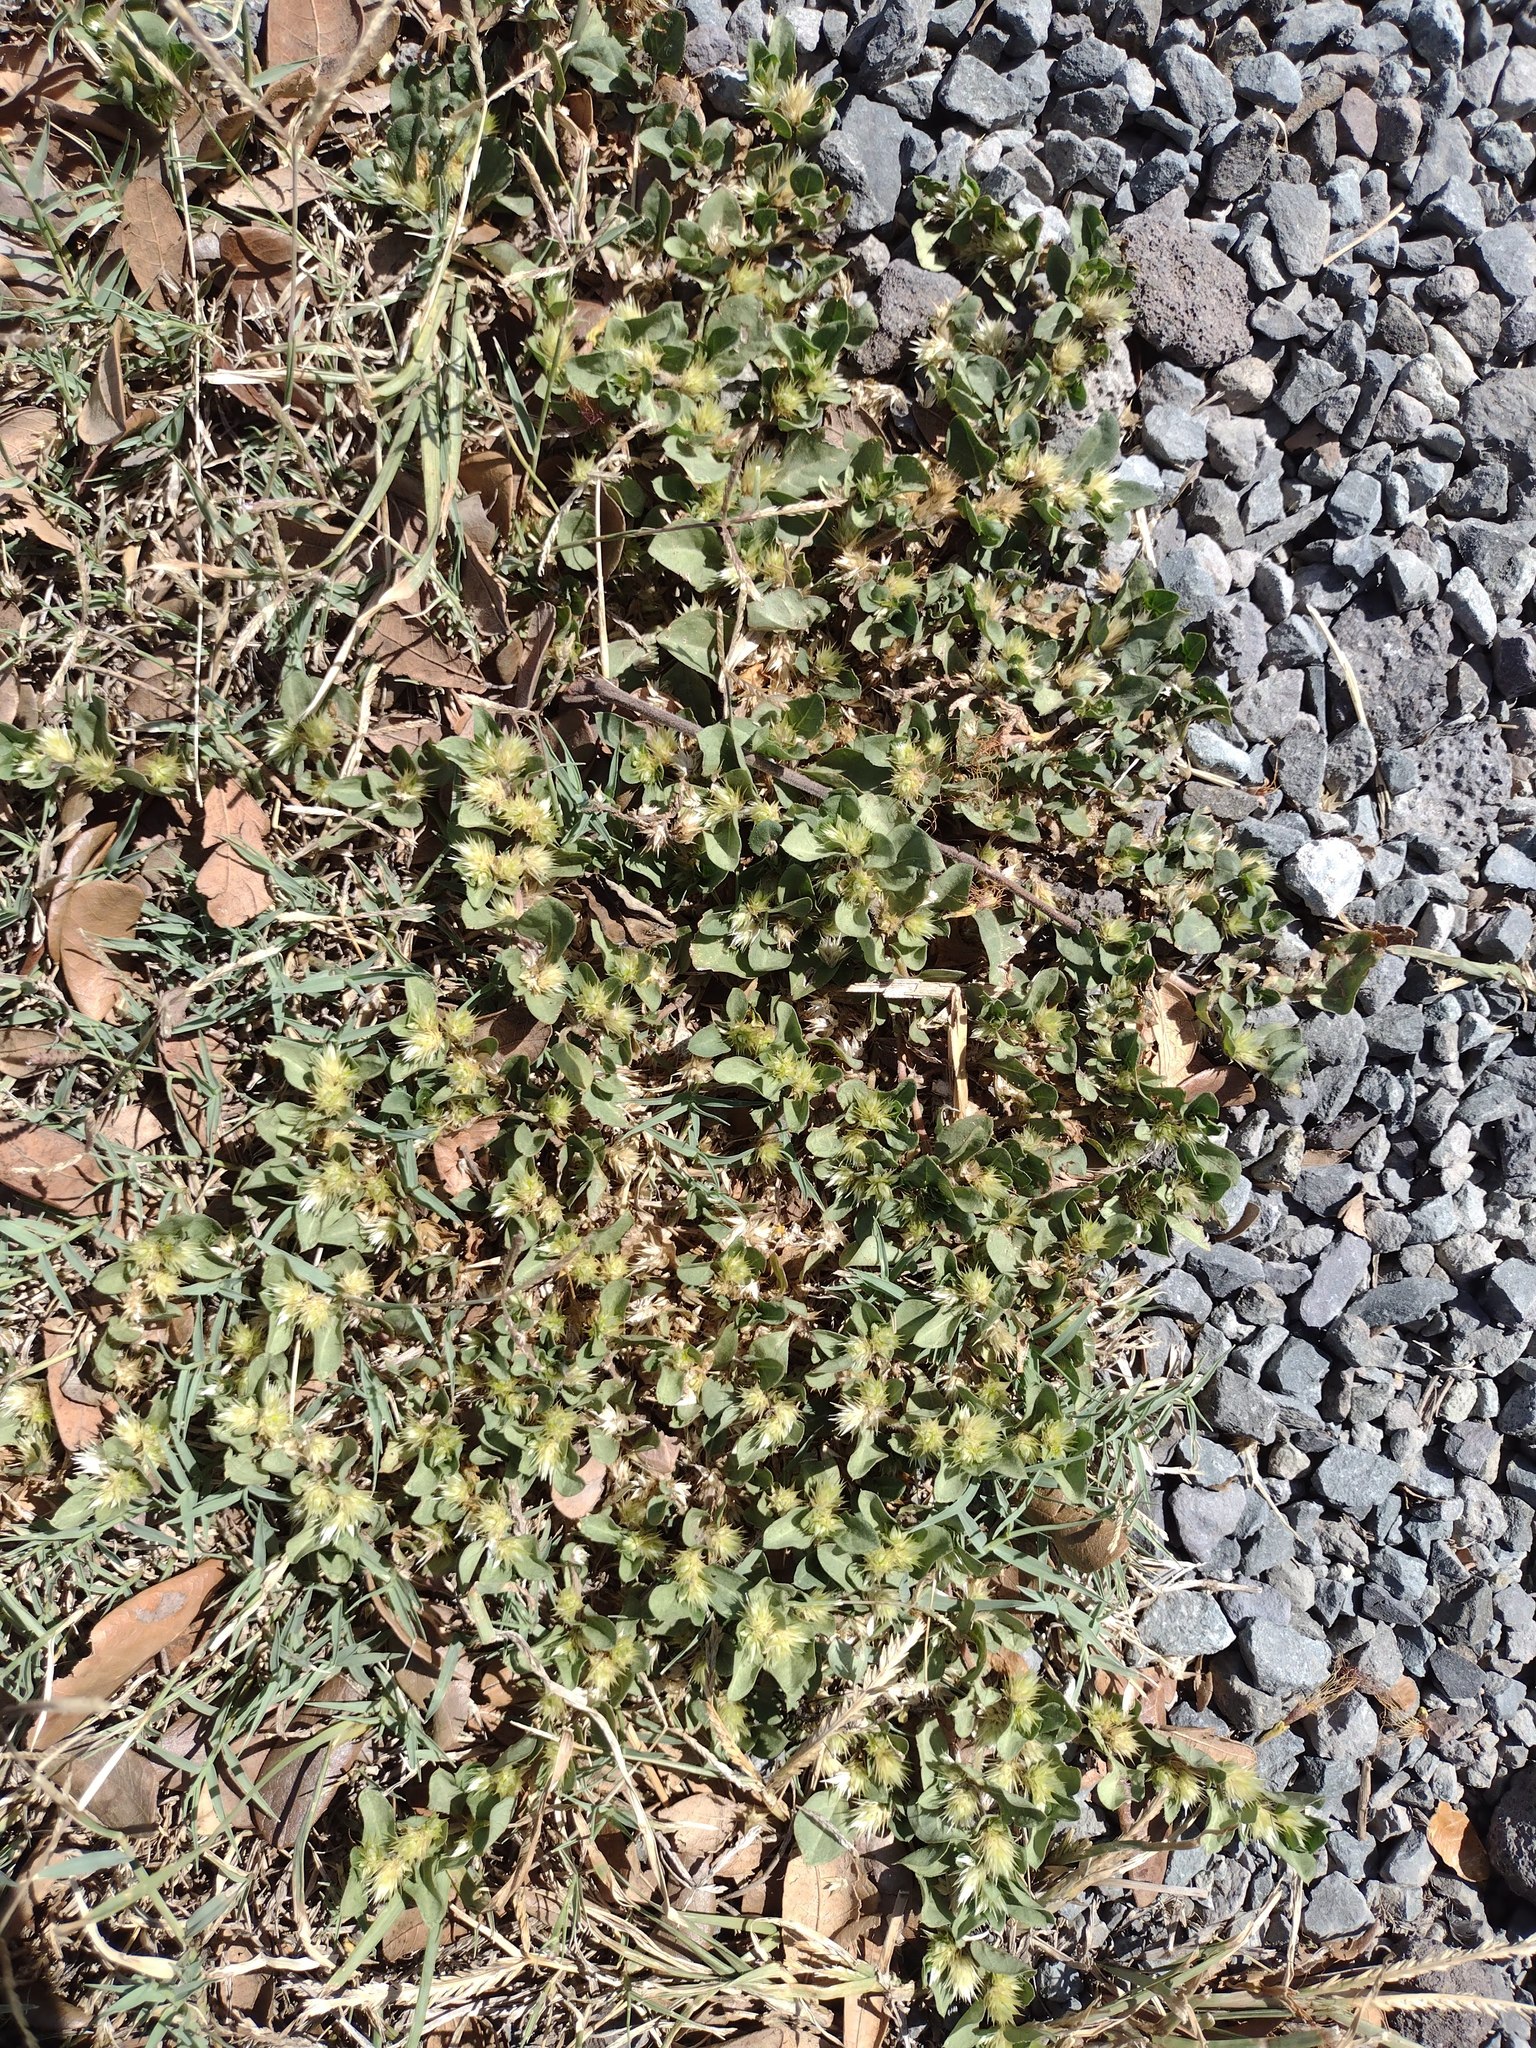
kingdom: Plantae
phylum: Tracheophyta
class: Magnoliopsida
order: Caryophyllales
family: Amaranthaceae
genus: Alternanthera
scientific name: Alternanthera pungens
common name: Khakiweed
